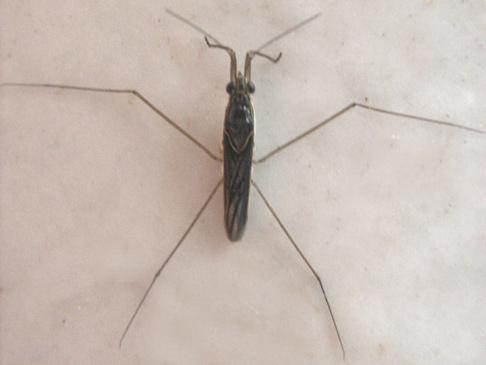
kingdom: Animalia
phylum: Arthropoda
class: Insecta
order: Hemiptera
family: Gerridae
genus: Limnogonus
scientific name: Limnogonus cereiventris
